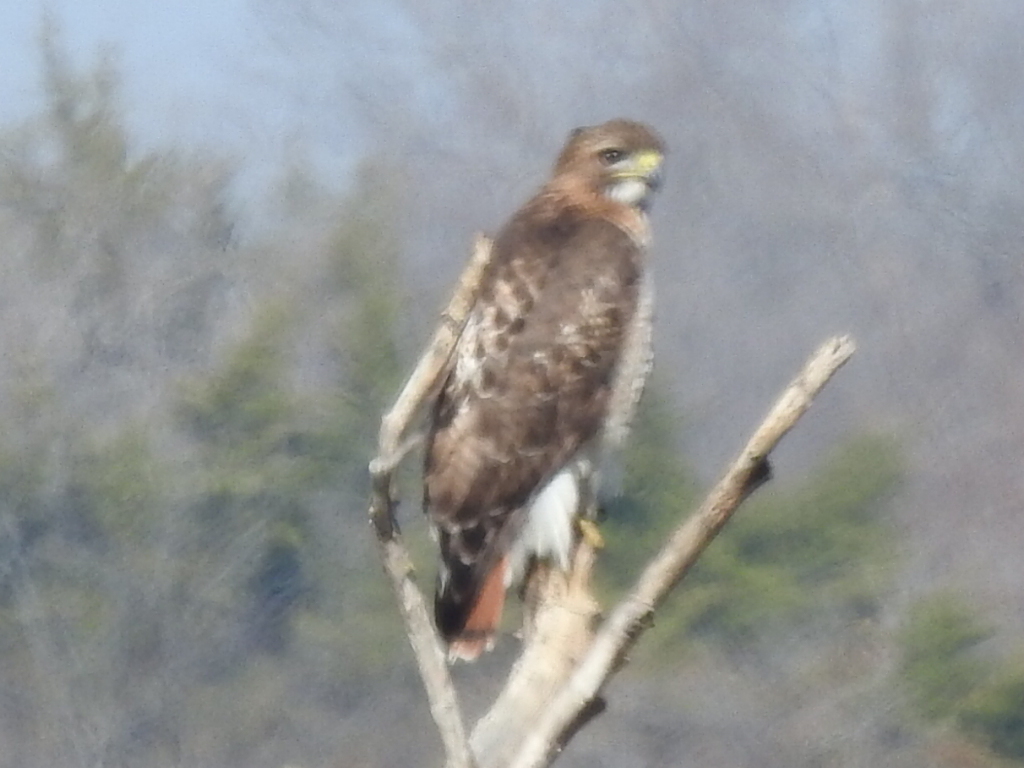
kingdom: Animalia
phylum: Chordata
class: Aves
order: Accipitriformes
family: Accipitridae
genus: Buteo
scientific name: Buteo jamaicensis
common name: Red-tailed hawk
